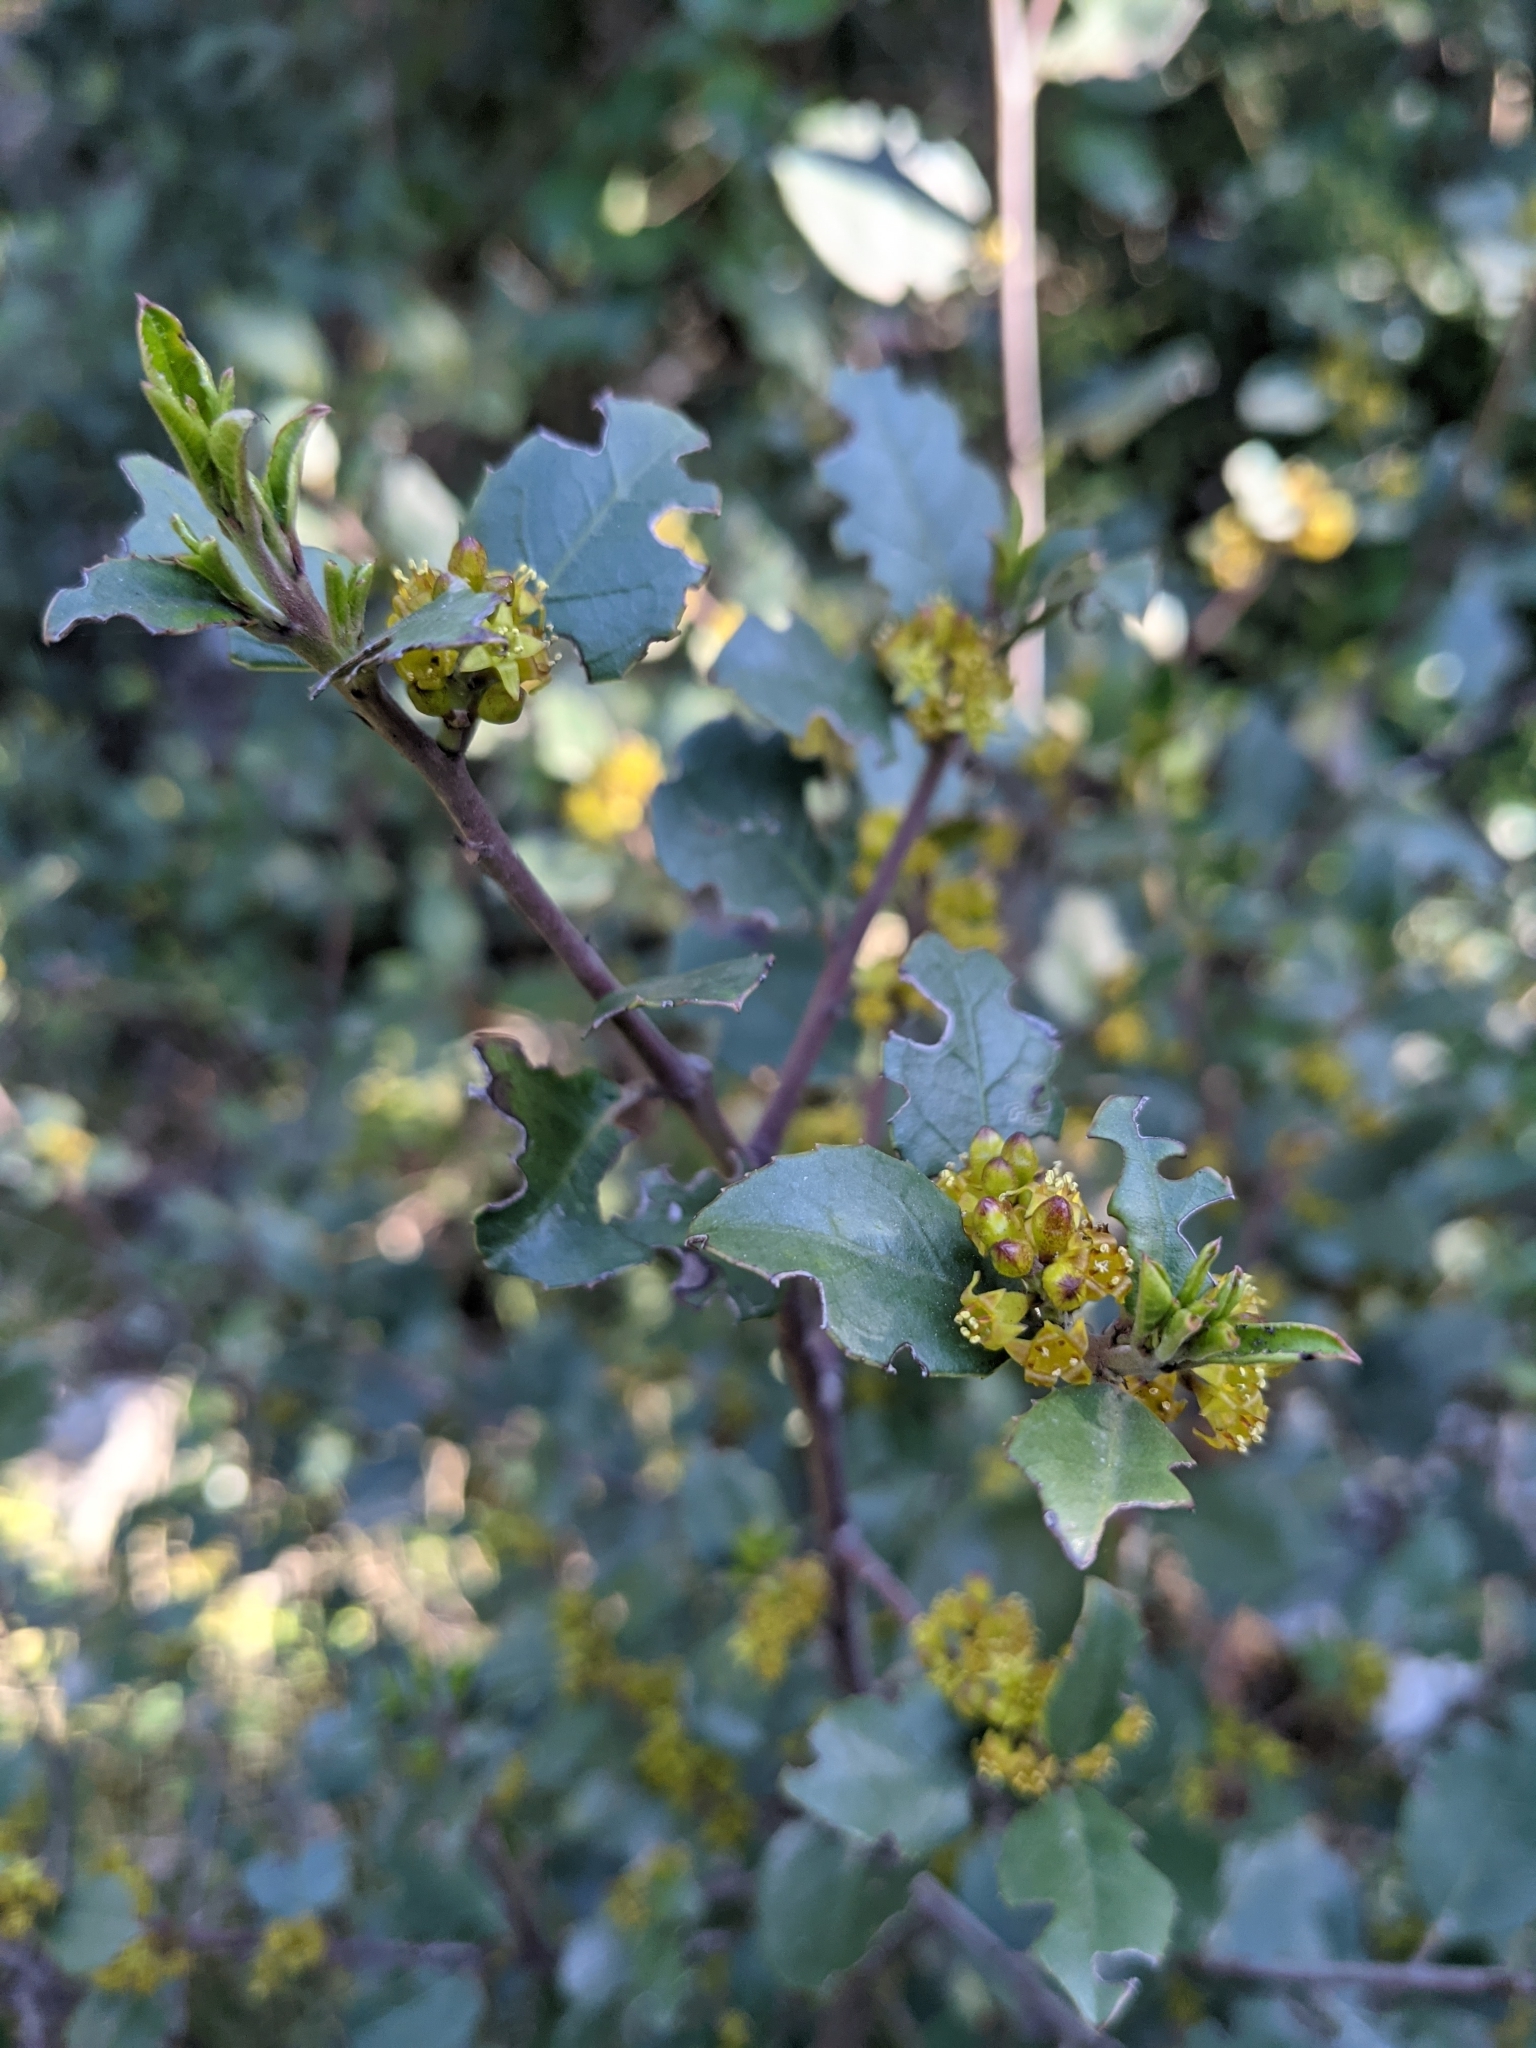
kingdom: Plantae
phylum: Tracheophyta
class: Magnoliopsida
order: Rosales
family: Rhamnaceae
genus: Rhamnus
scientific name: Rhamnus alaternus
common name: Mediterranean buckthorn
